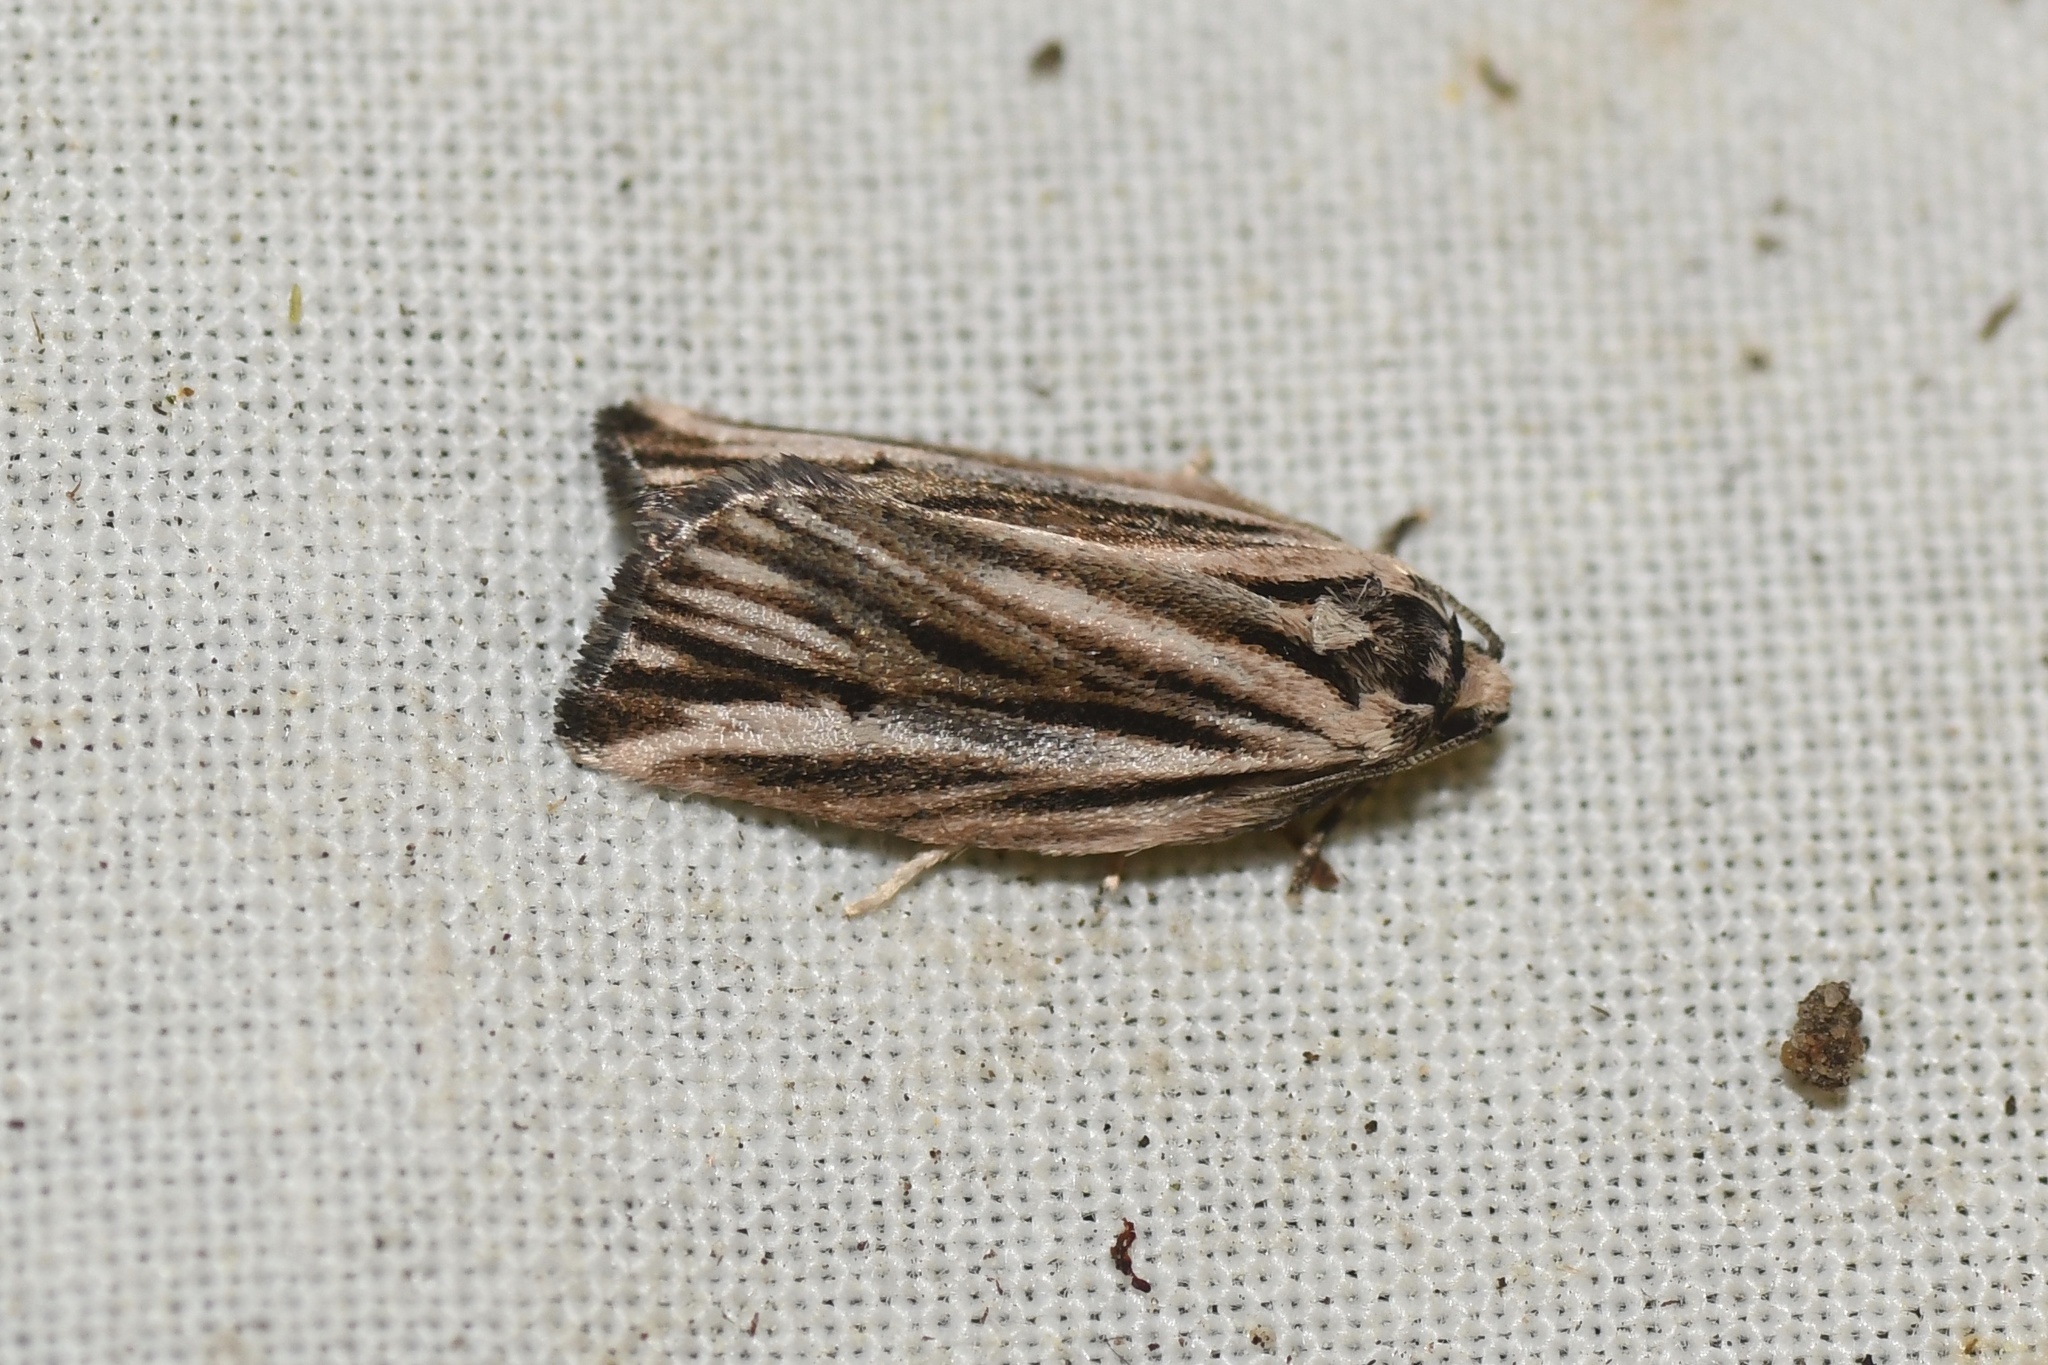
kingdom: Animalia
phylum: Arthropoda
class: Insecta
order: Lepidoptera
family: Tortricidae
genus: Archips
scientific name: Archips strianus
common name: Striated tortrix moth
